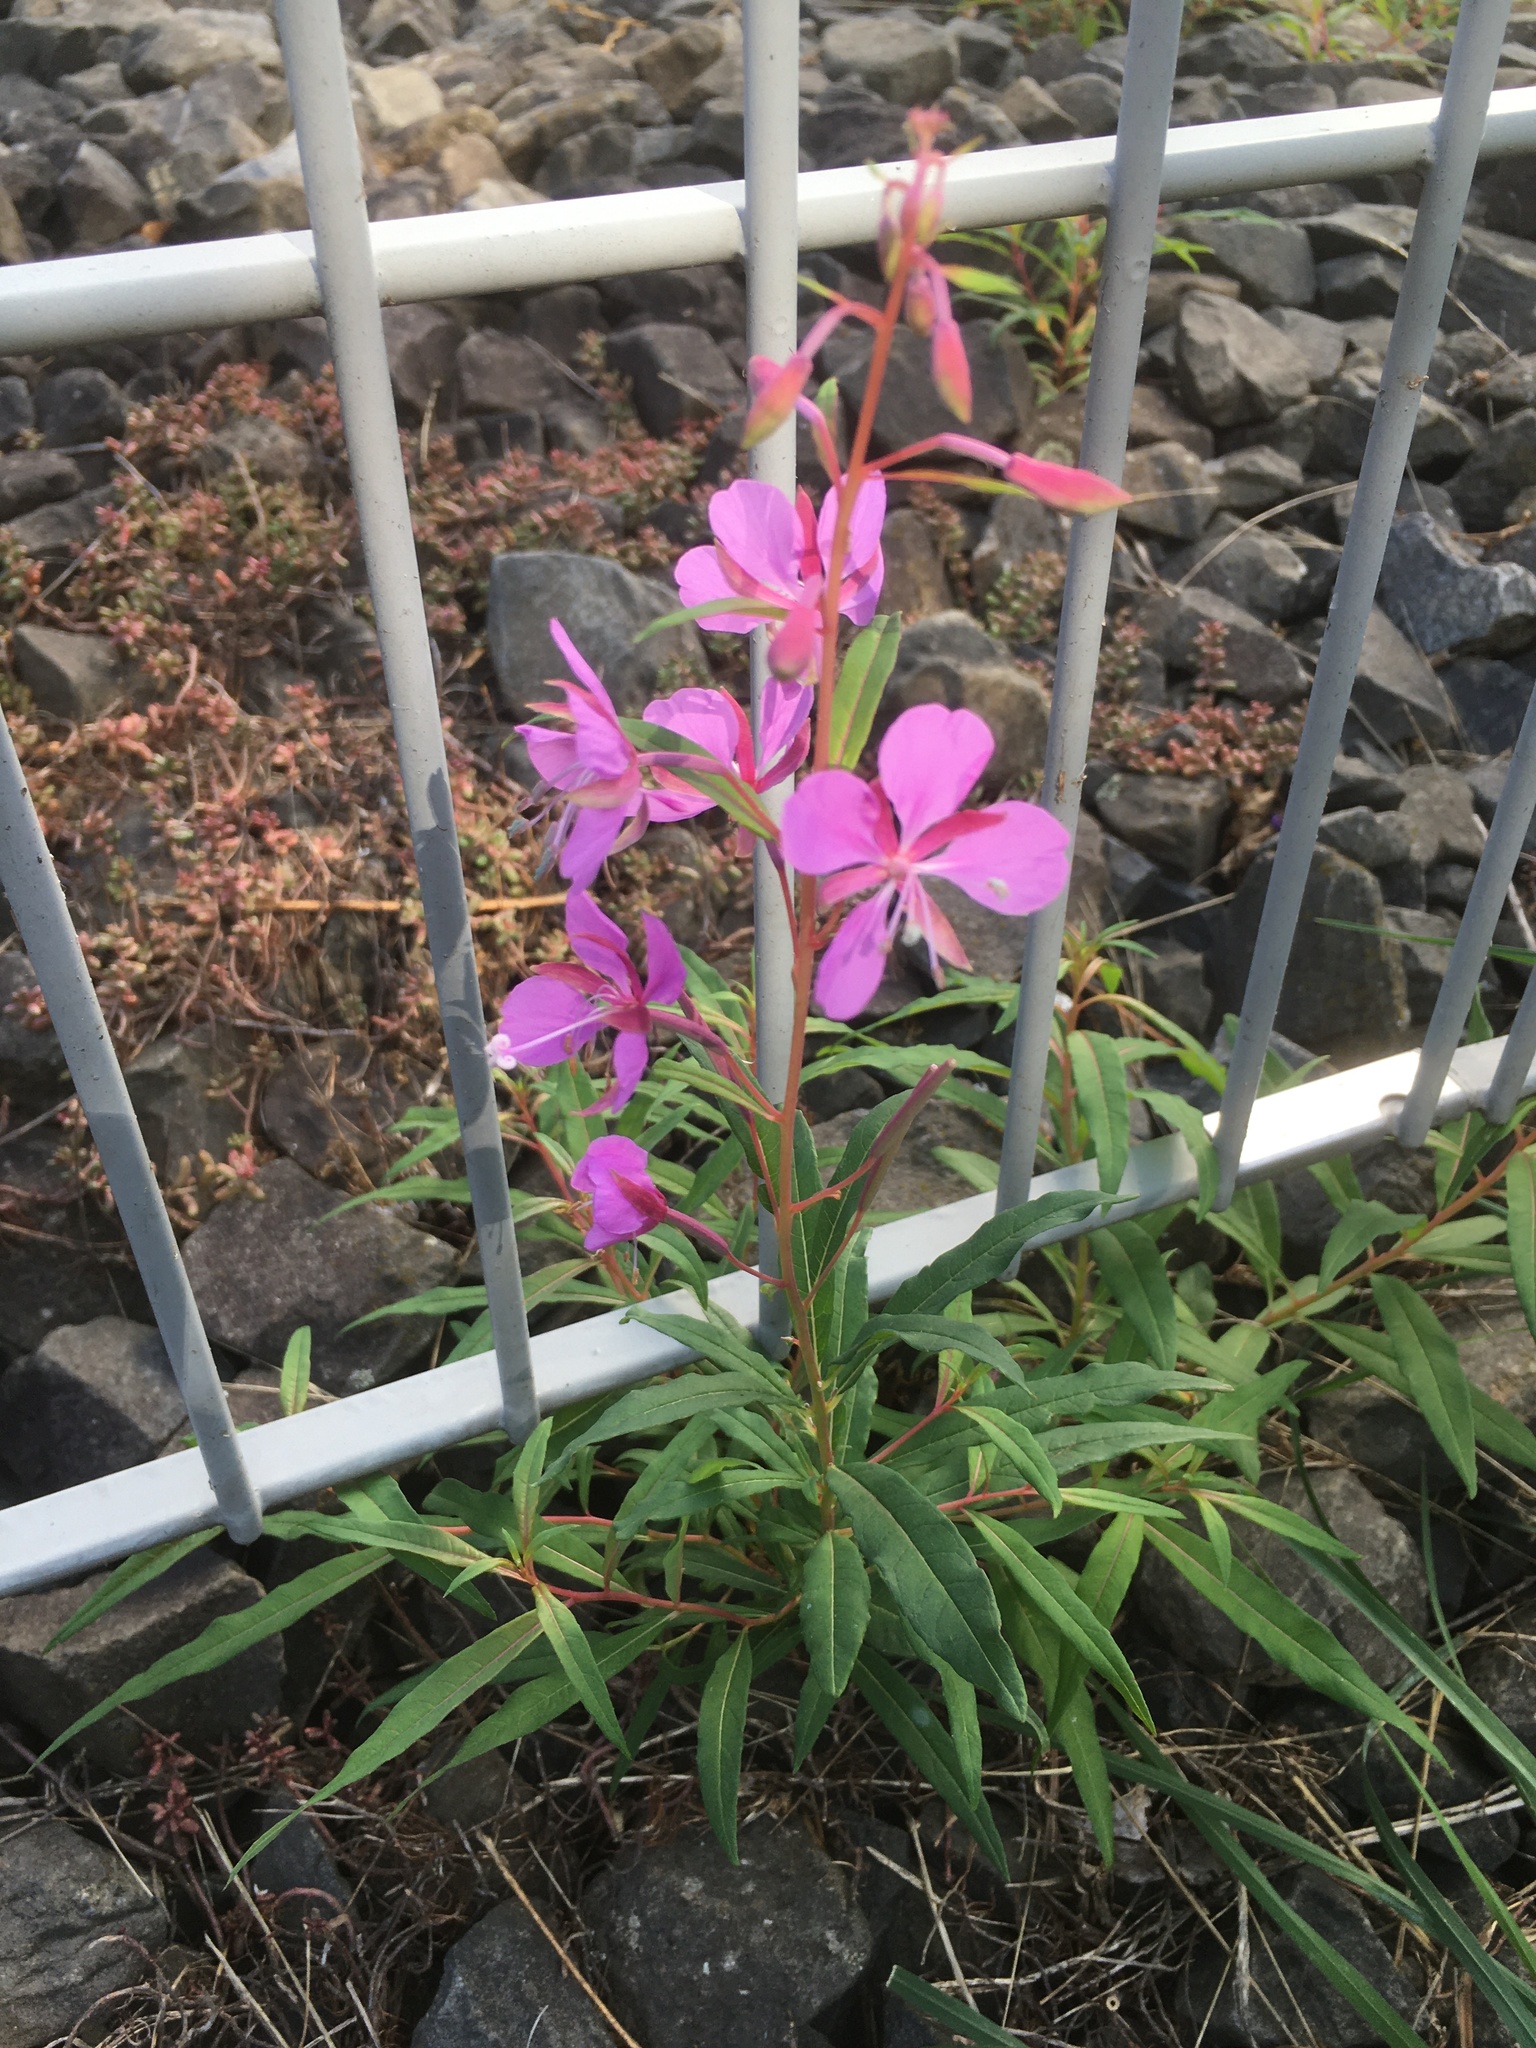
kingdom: Plantae
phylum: Tracheophyta
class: Magnoliopsida
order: Myrtales
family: Onagraceae
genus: Chamaenerion
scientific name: Chamaenerion angustifolium
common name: Fireweed
